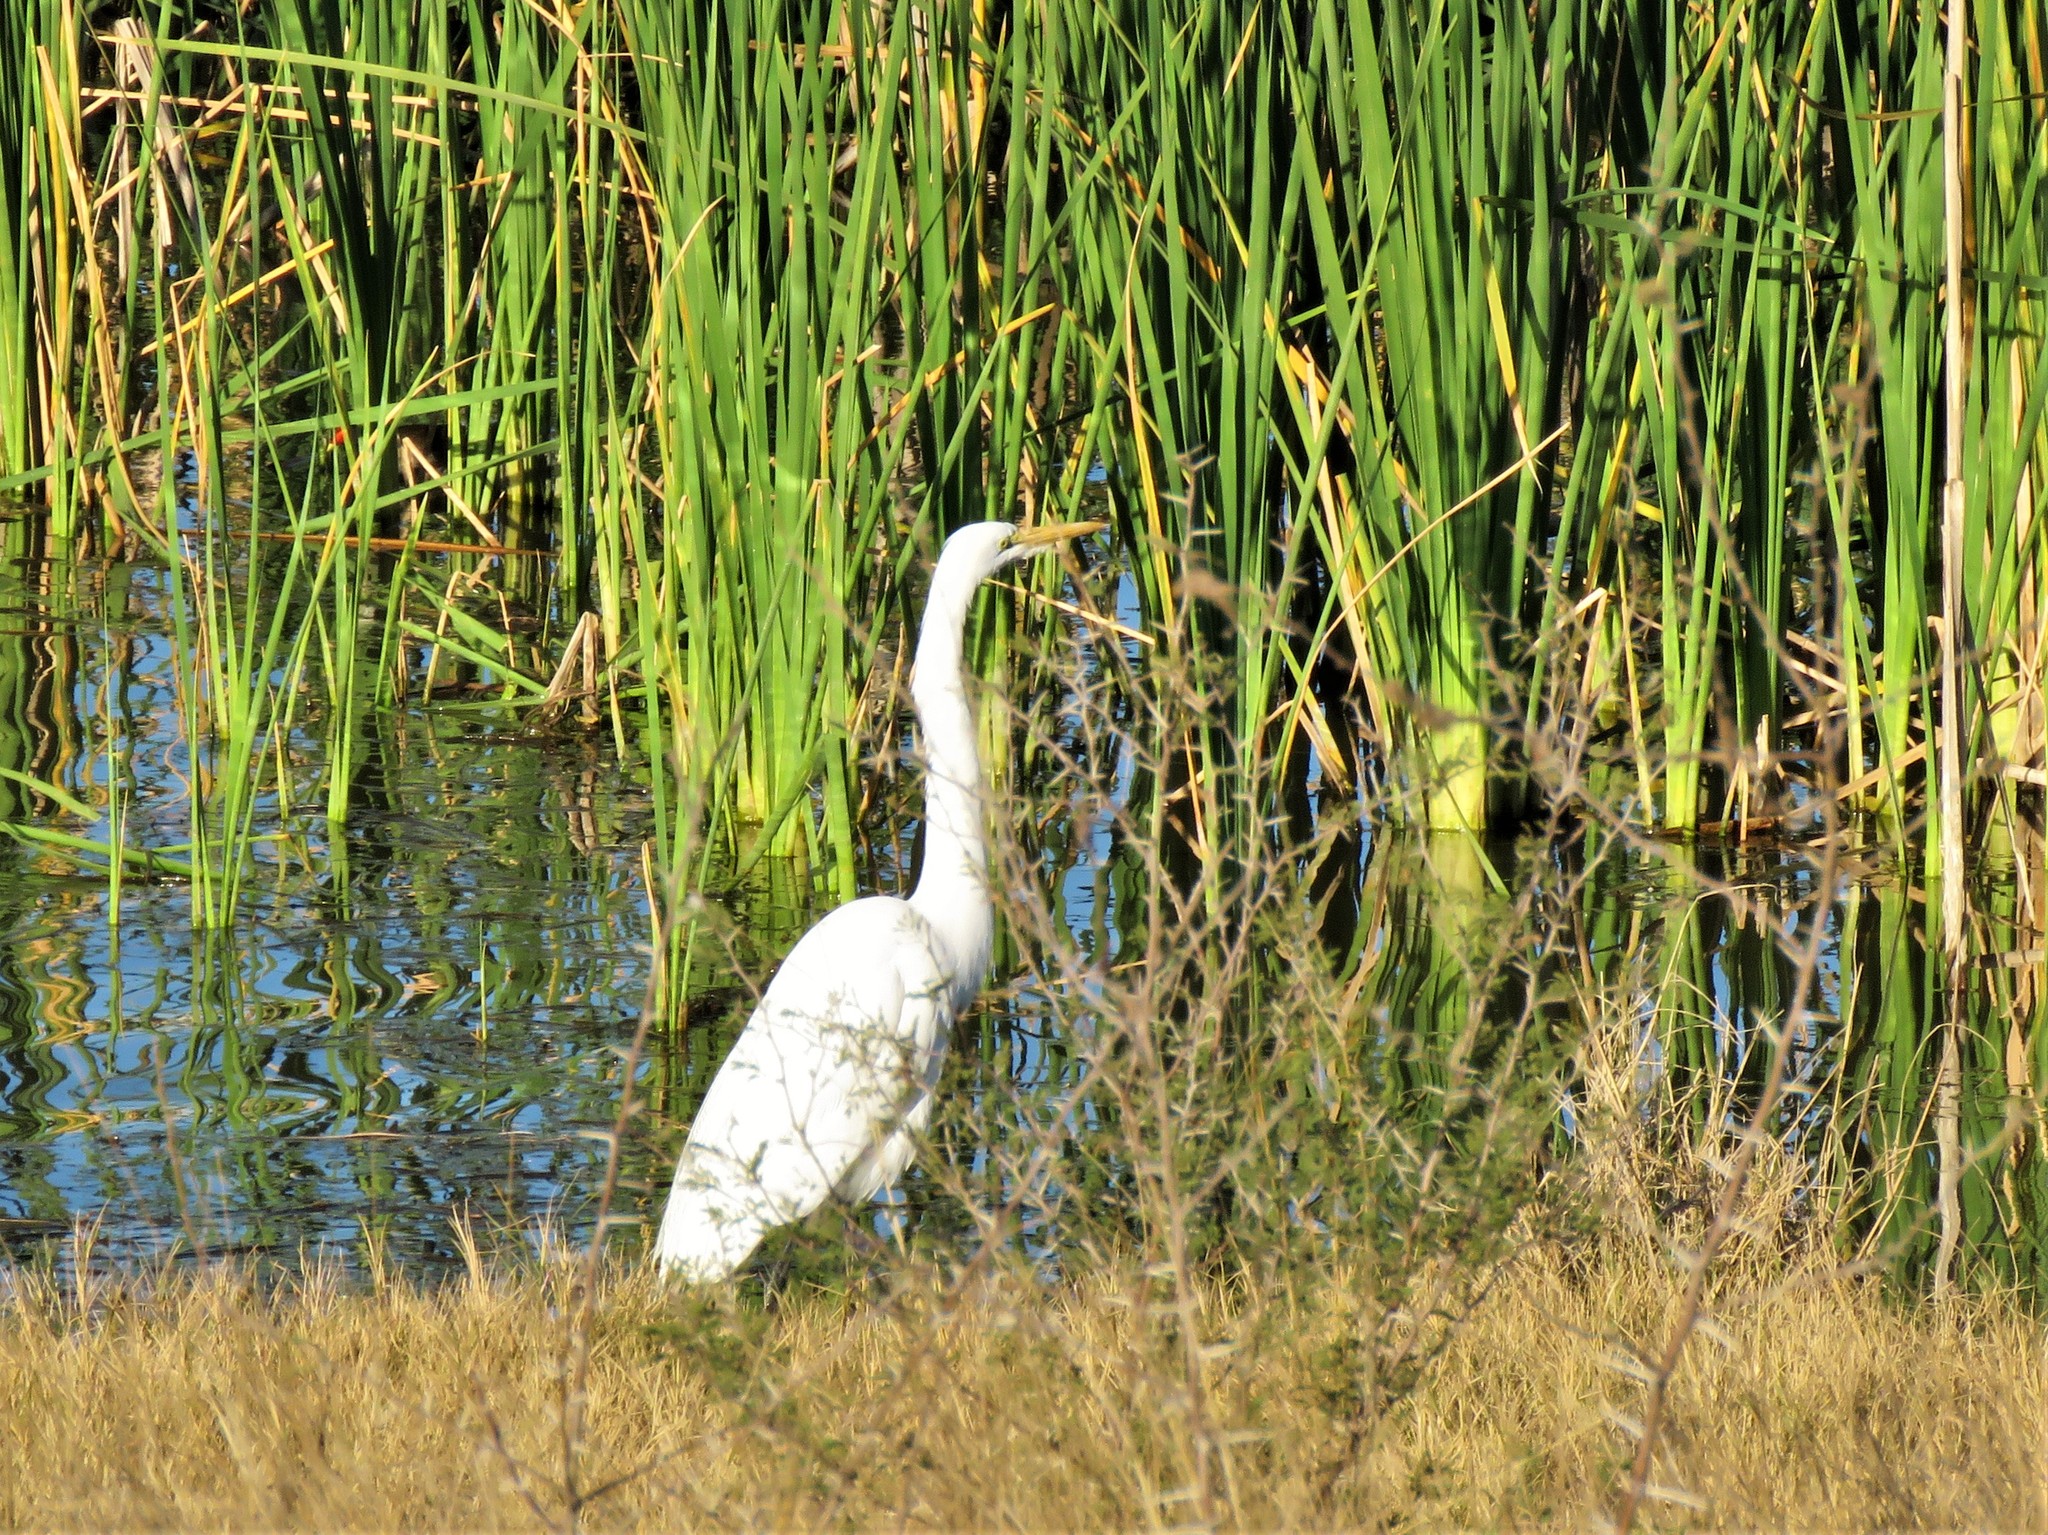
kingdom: Animalia
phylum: Chordata
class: Aves
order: Pelecaniformes
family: Ardeidae
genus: Ardea
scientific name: Ardea alba
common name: Great egret
